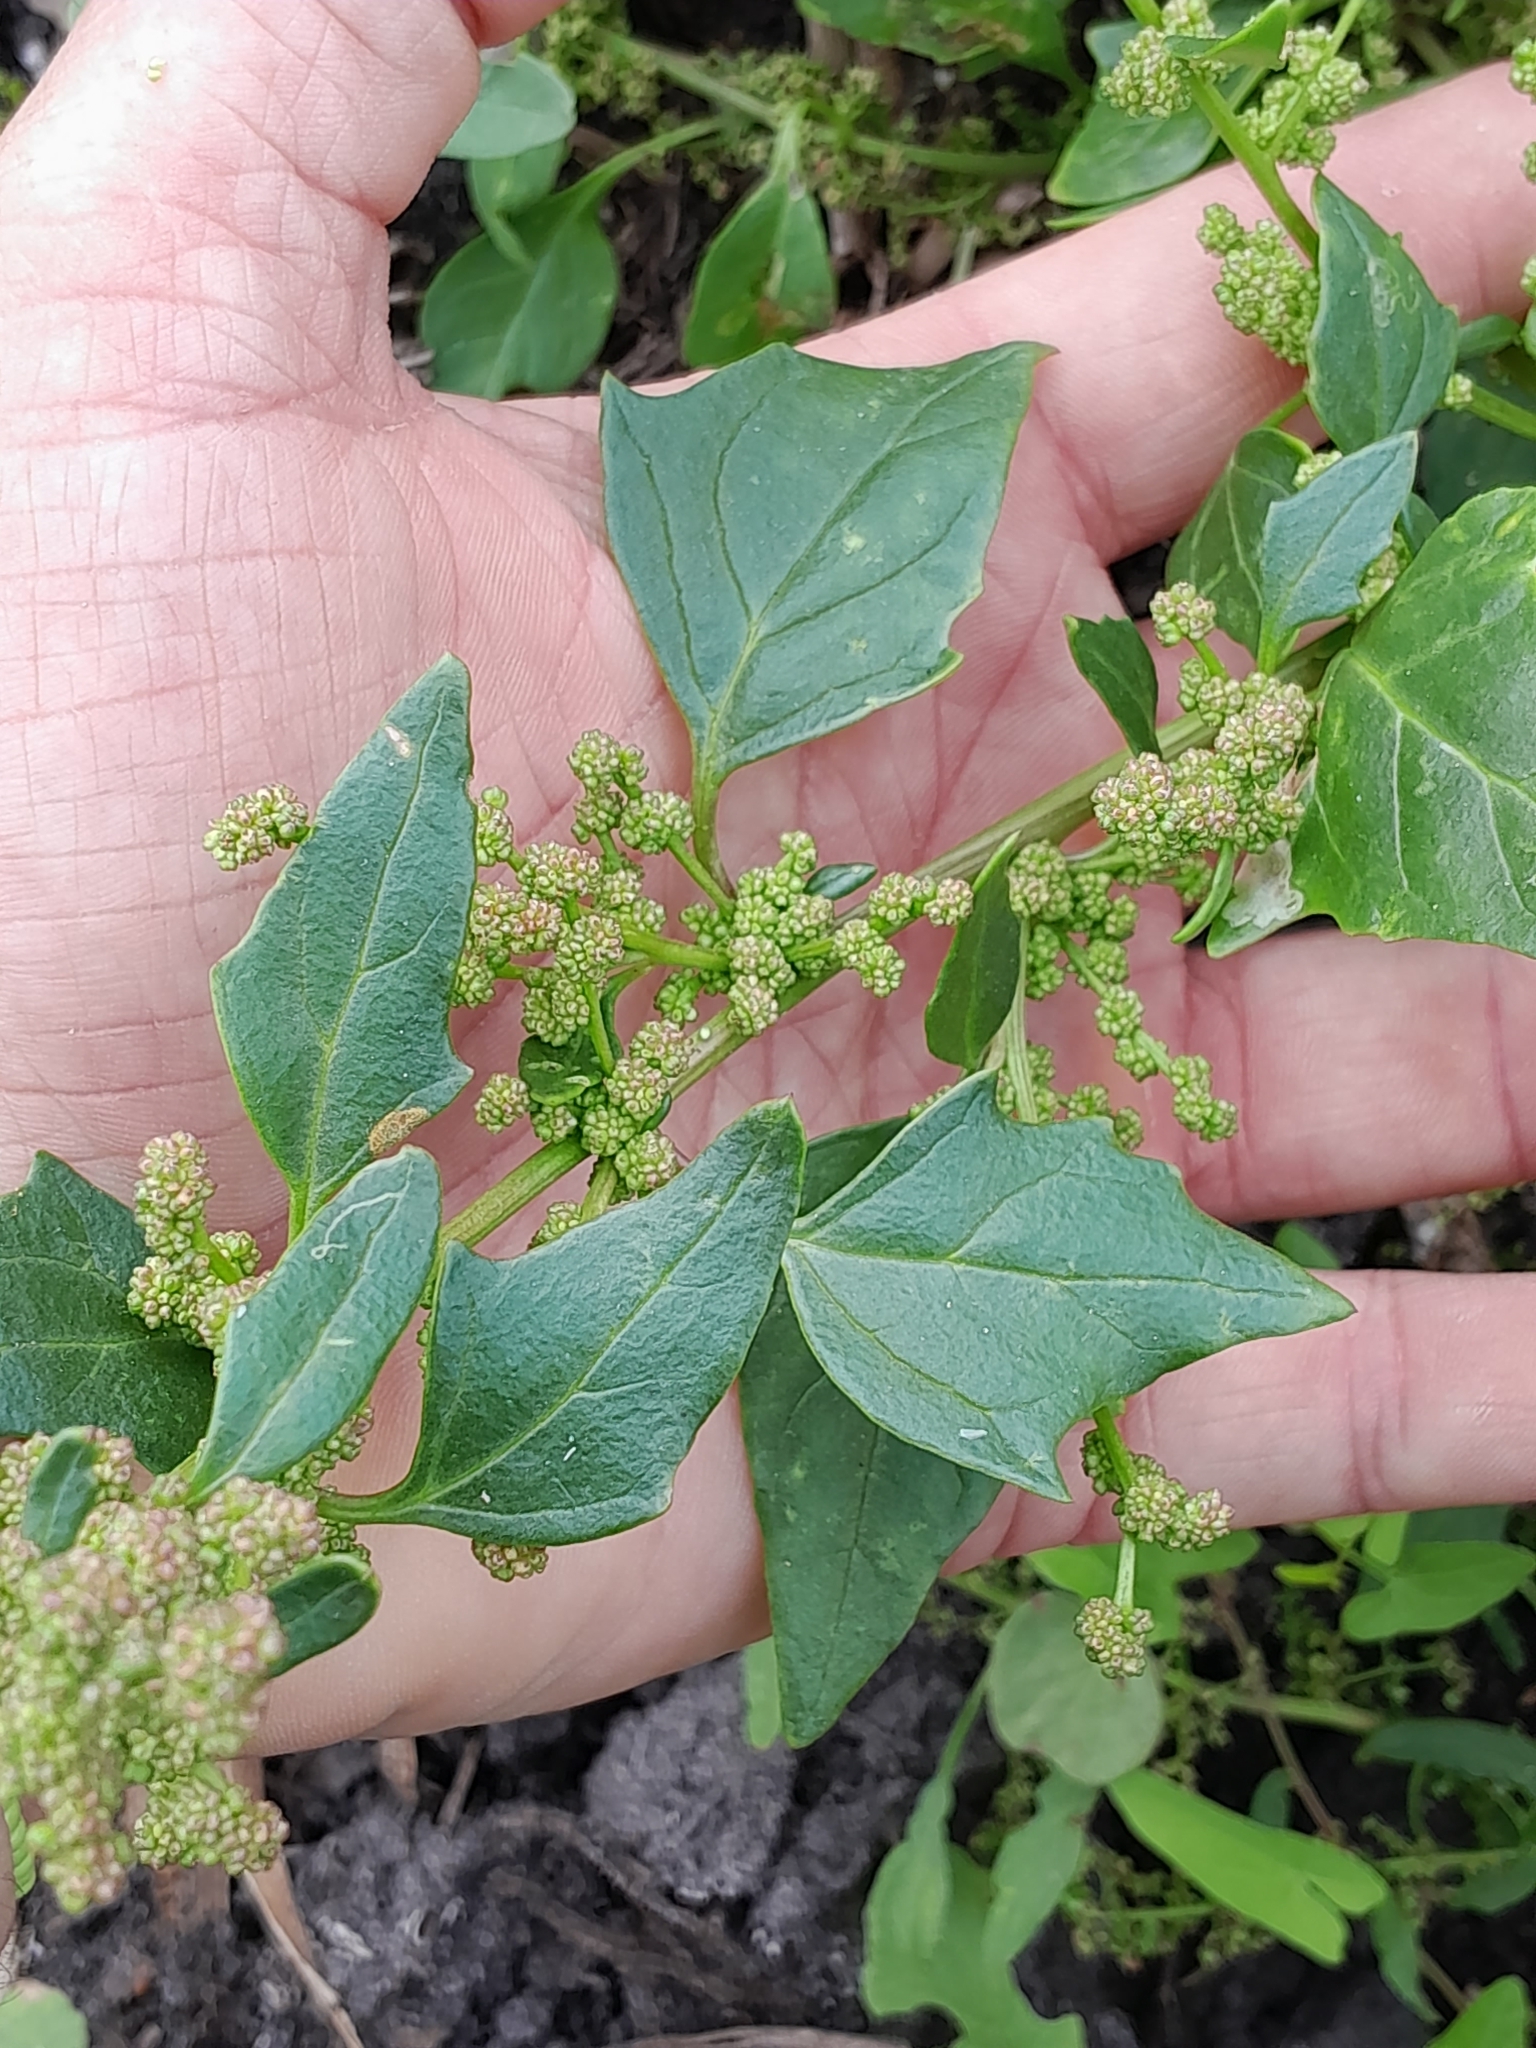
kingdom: Plantae
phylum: Tracheophyta
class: Magnoliopsida
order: Caryophyllales
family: Amaranthaceae
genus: Oxybasis
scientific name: Oxybasis rubra
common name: Red goosefoot
